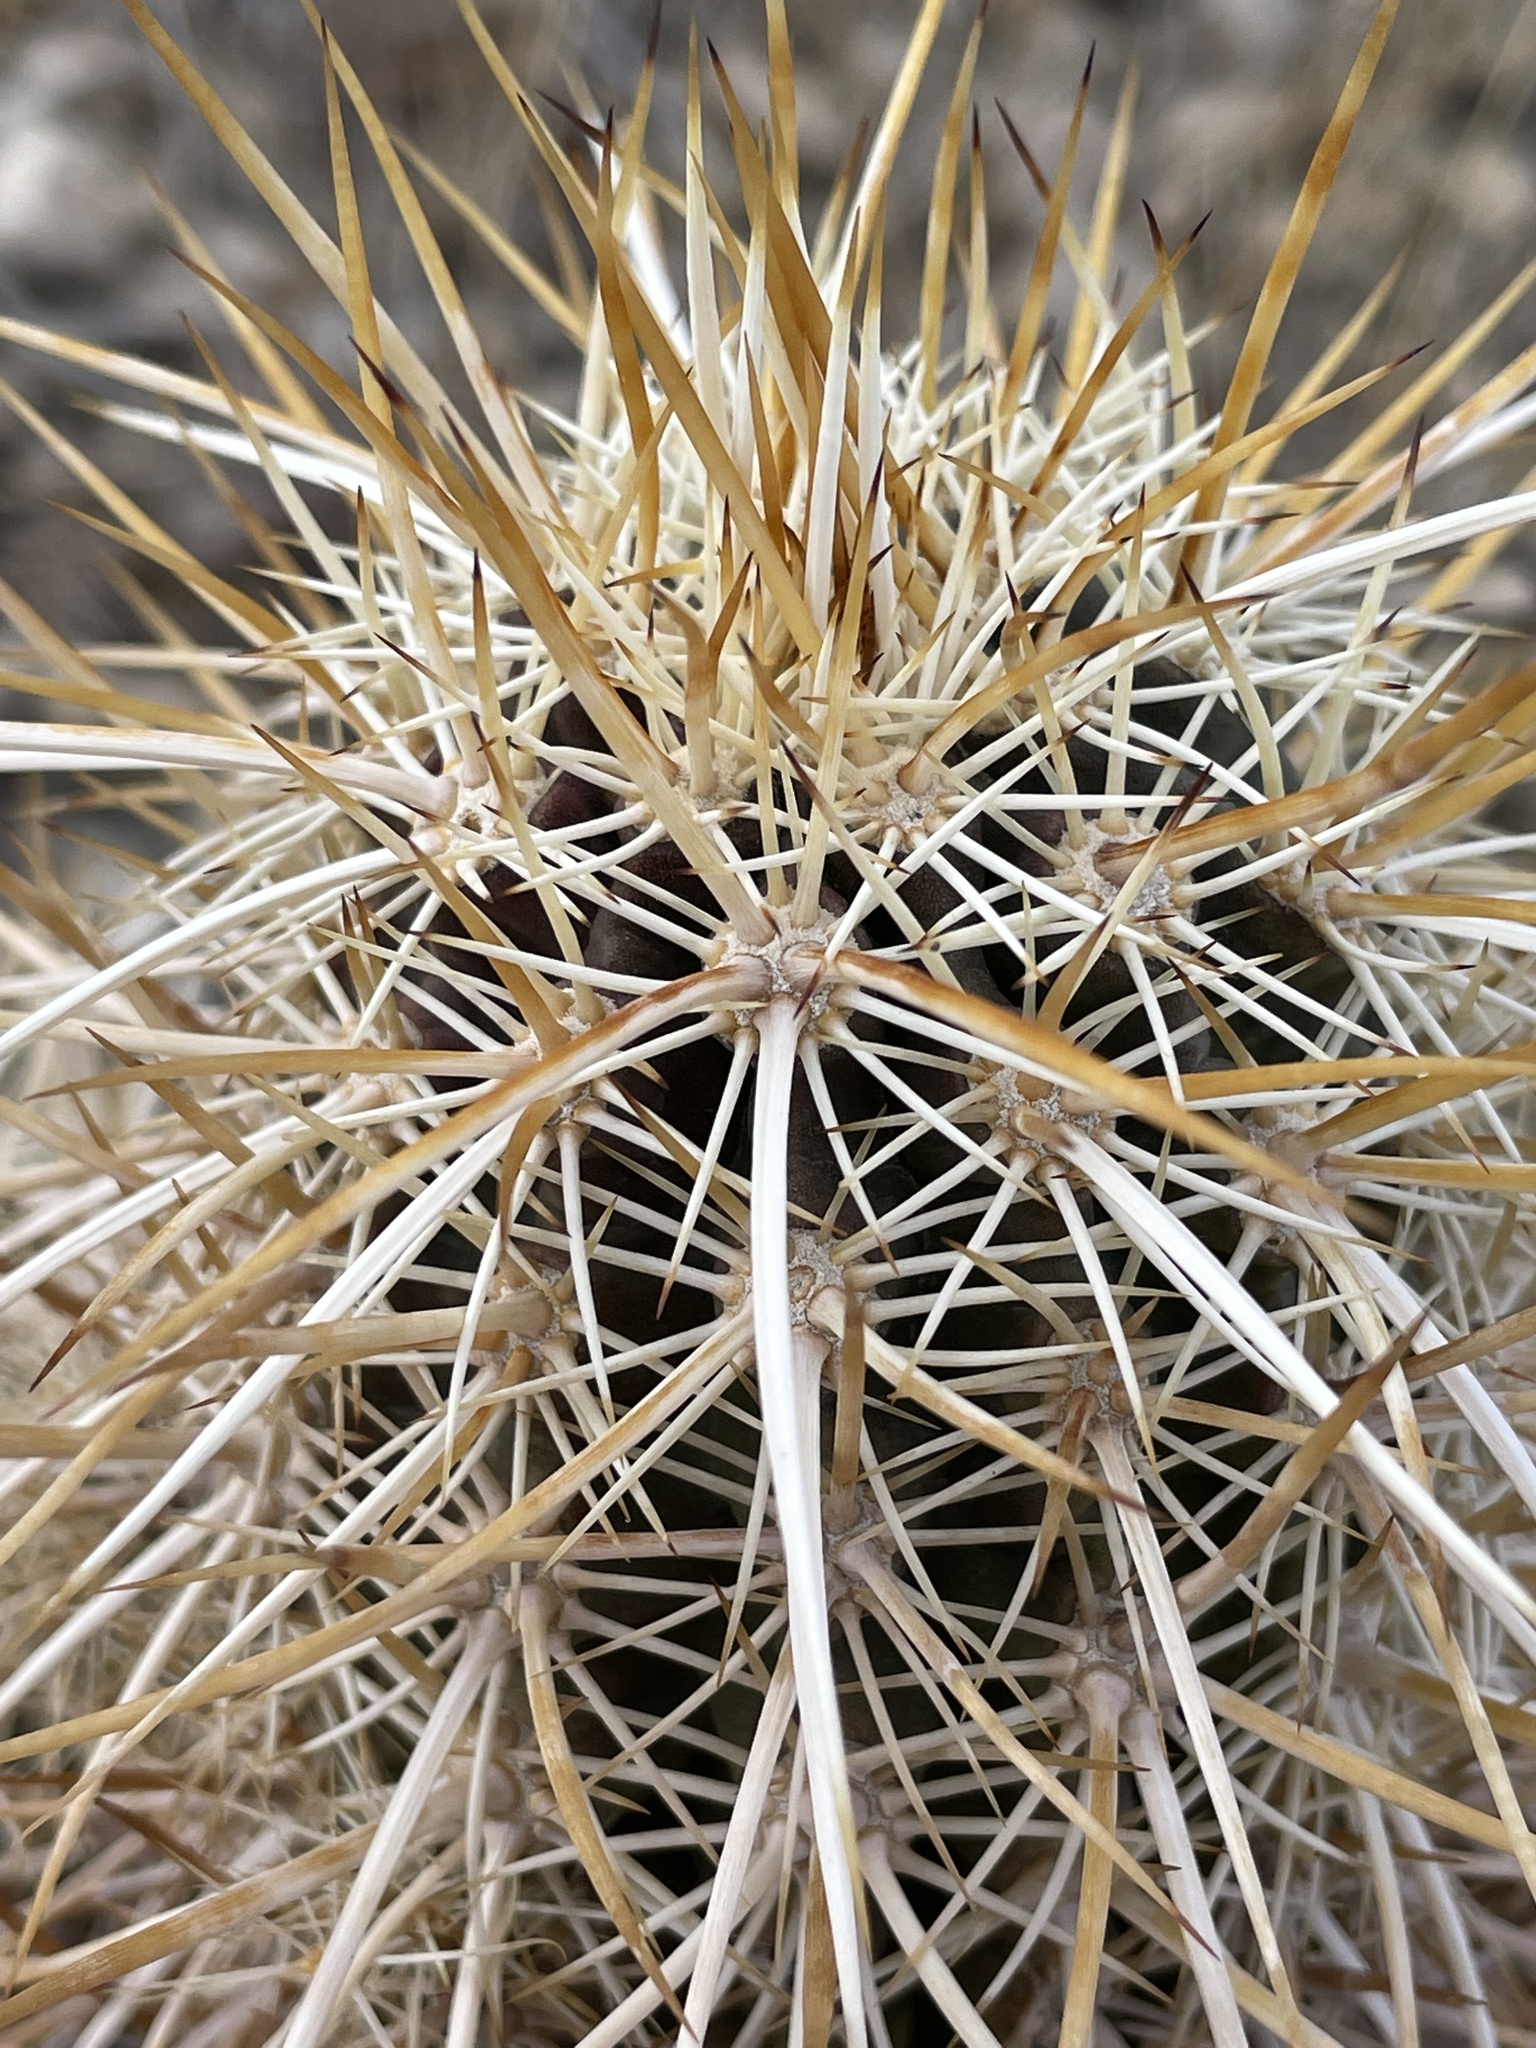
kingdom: Plantae
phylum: Tracheophyta
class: Magnoliopsida
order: Caryophyllales
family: Cactaceae
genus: Echinocereus
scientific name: Echinocereus engelmannii
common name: Engelmann's hedgehog cactus
